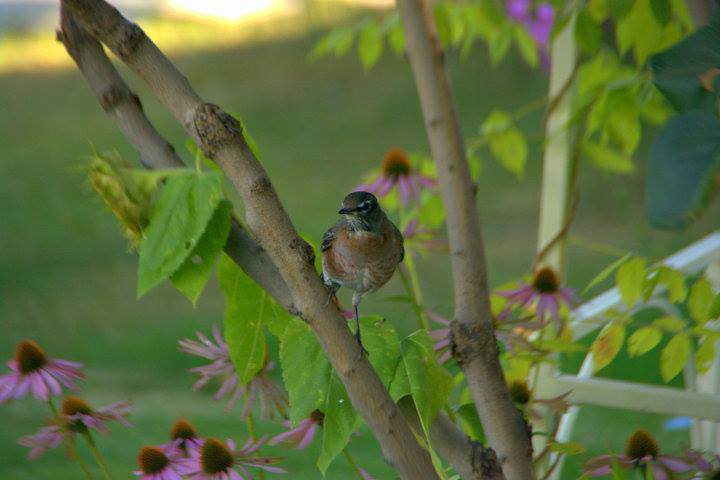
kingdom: Animalia
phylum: Chordata
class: Aves
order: Passeriformes
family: Turdidae
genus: Turdus
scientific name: Turdus migratorius
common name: American robin
